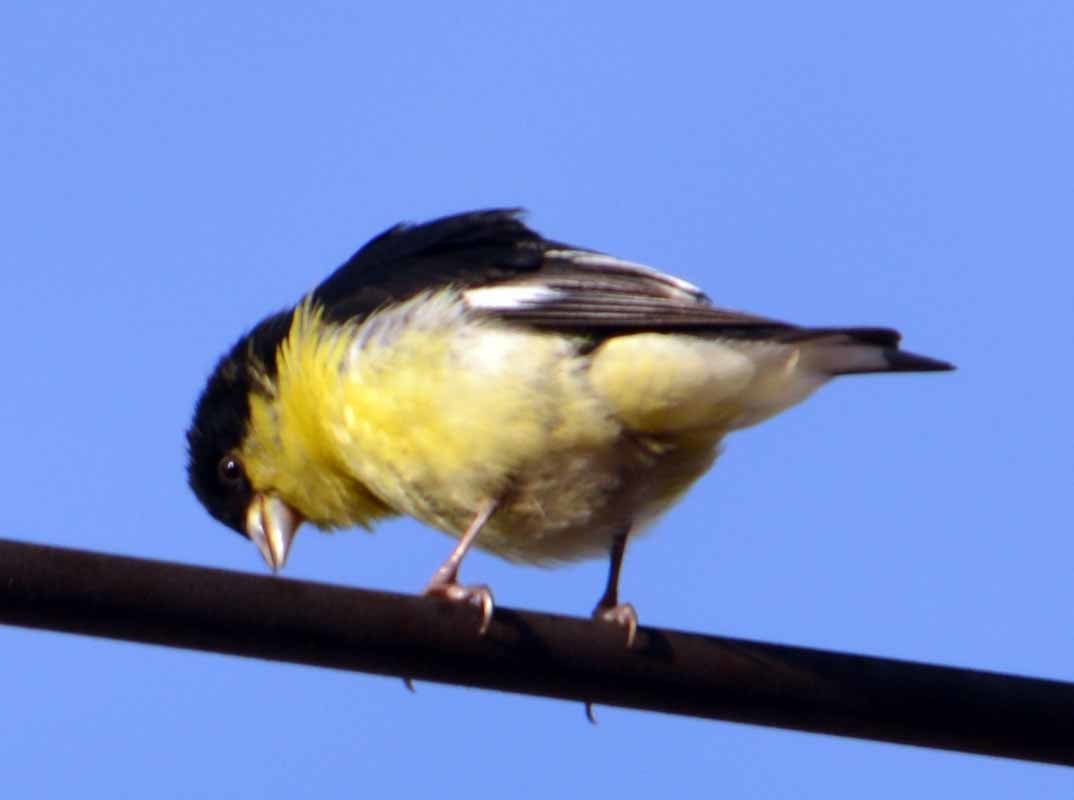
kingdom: Animalia
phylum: Chordata
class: Aves
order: Passeriformes
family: Fringillidae
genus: Spinus
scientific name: Spinus psaltria
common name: Lesser goldfinch
